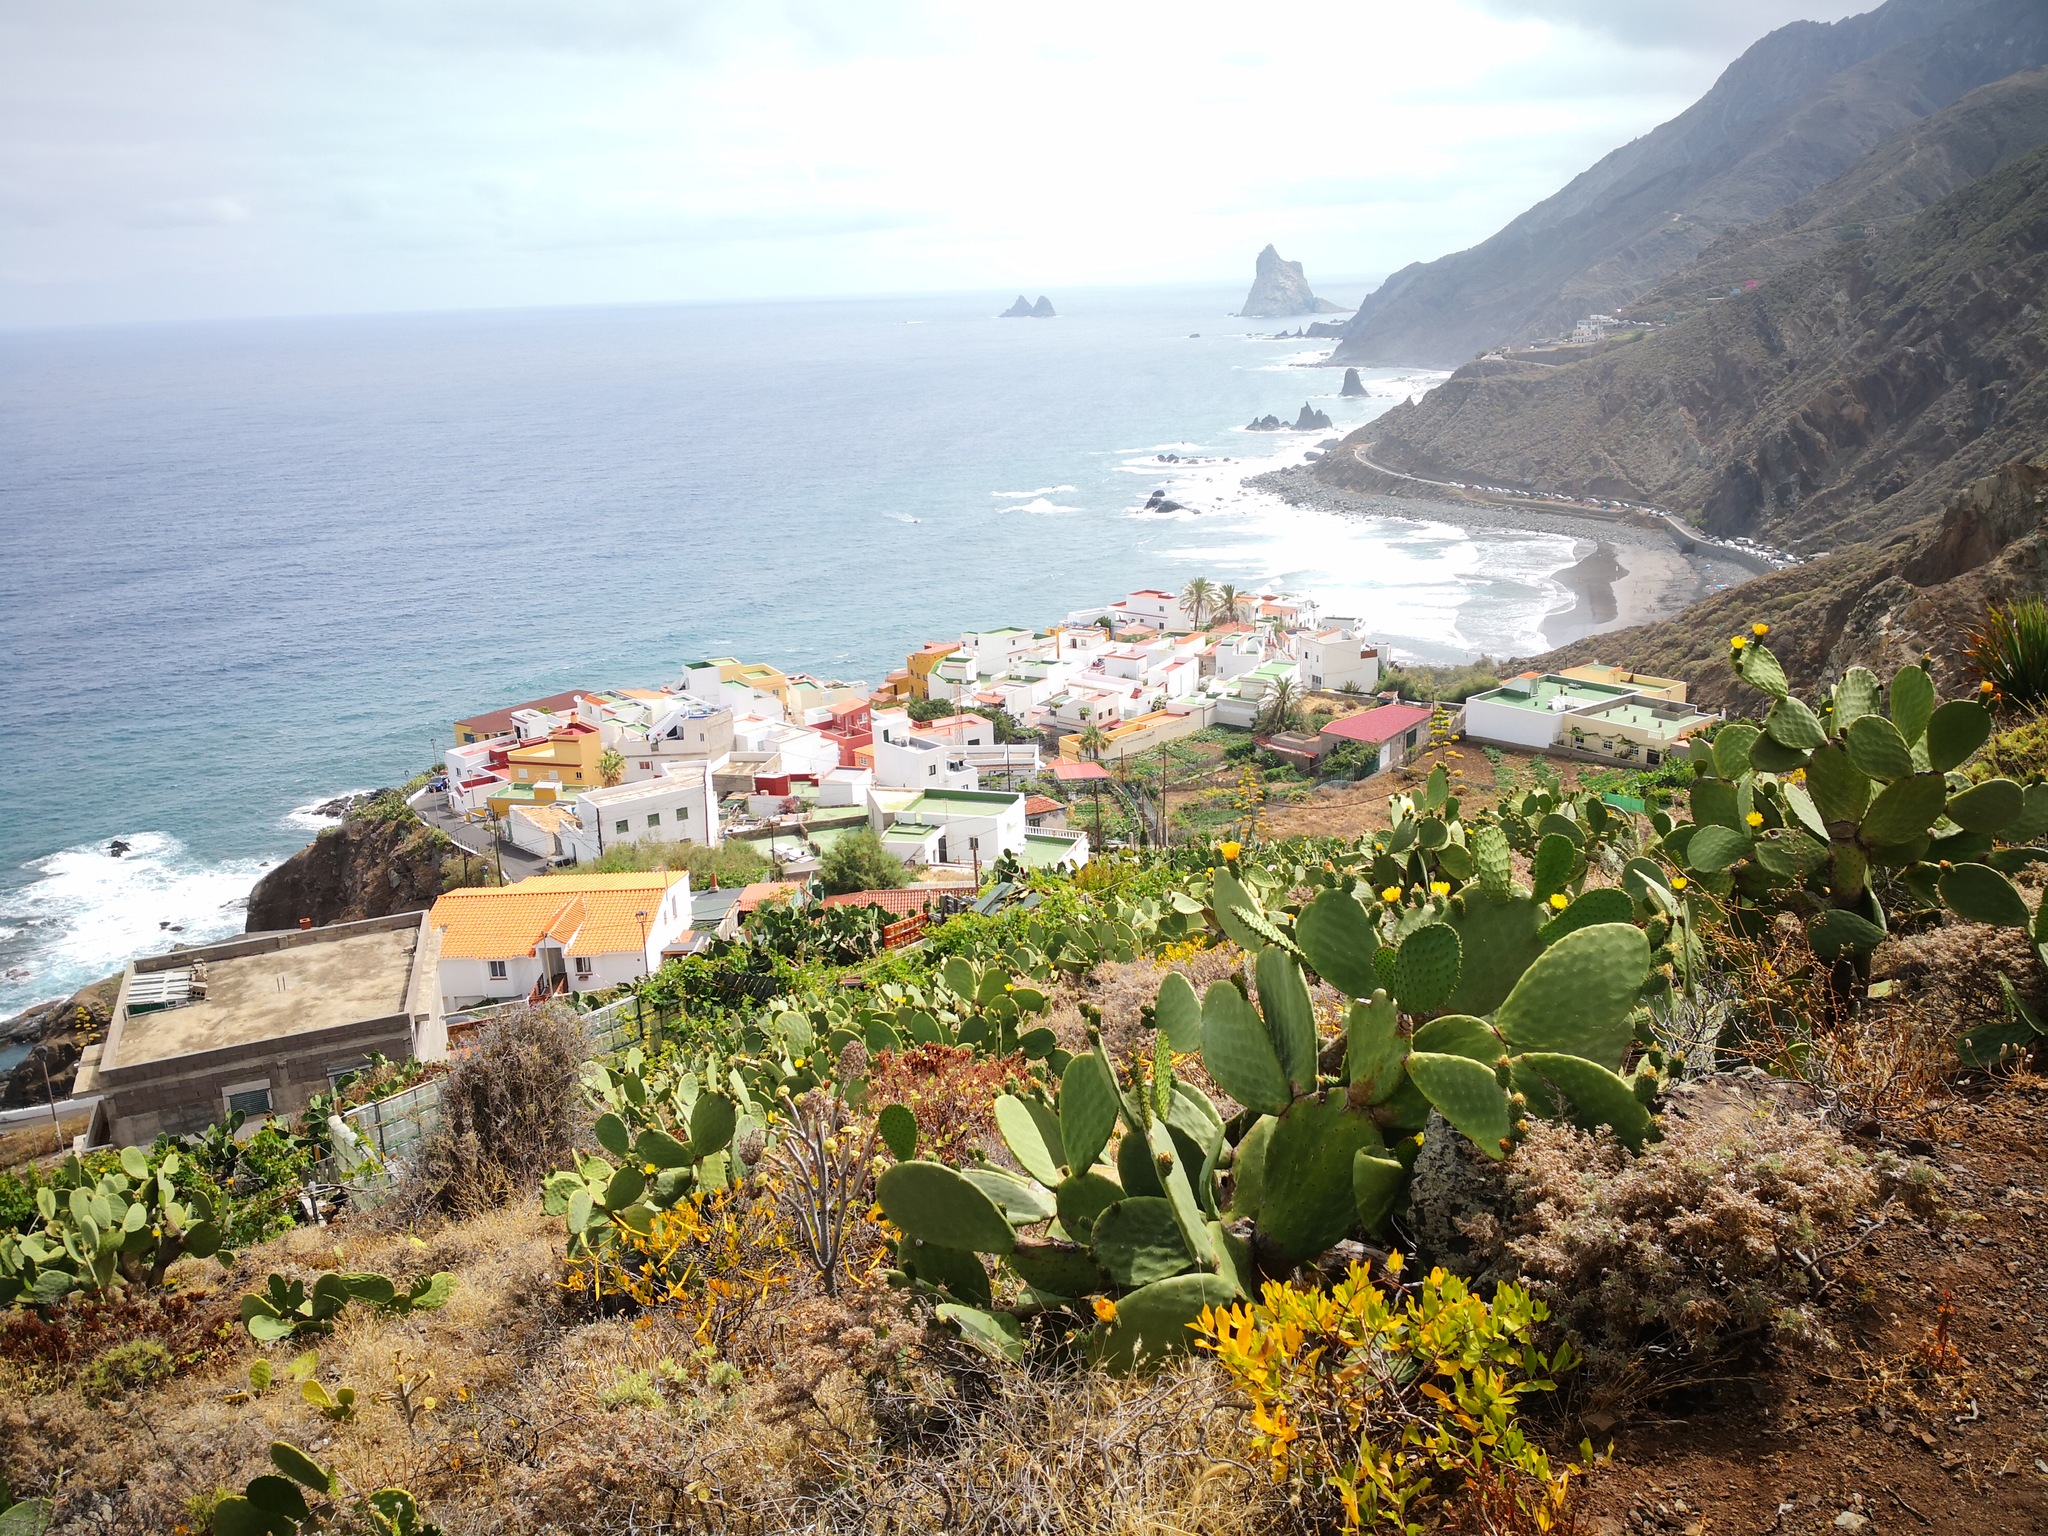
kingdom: Plantae
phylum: Tracheophyta
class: Magnoliopsida
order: Caryophyllales
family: Cactaceae
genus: Opuntia
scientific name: Opuntia ficus-indica
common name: Barbary fig
